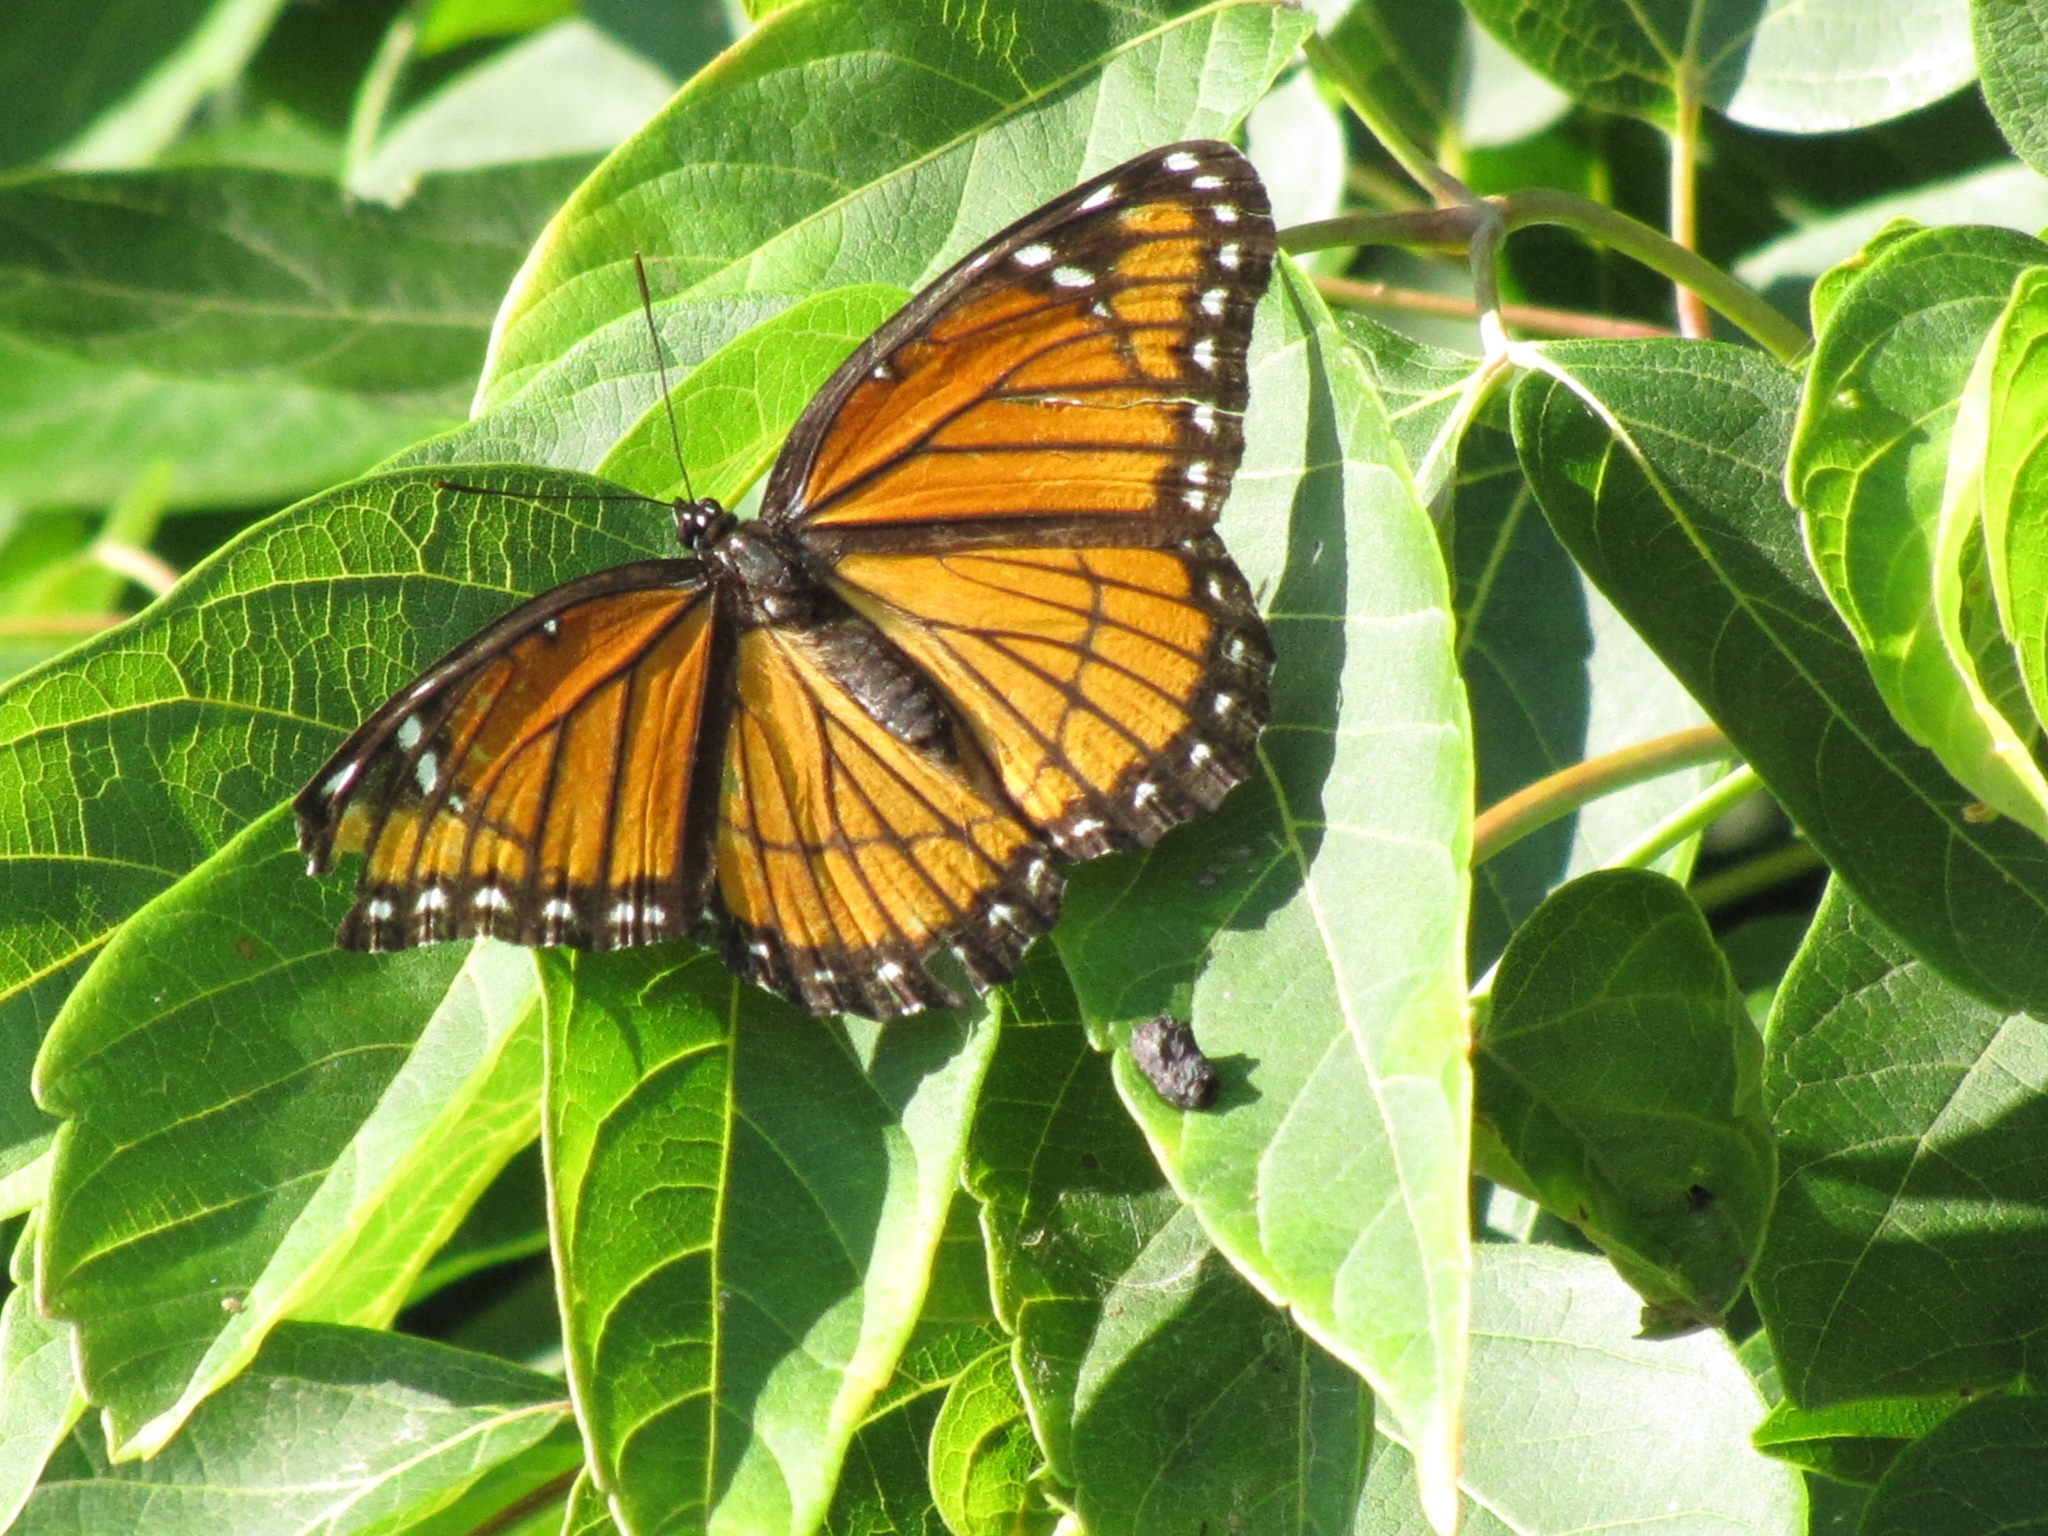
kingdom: Animalia
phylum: Arthropoda
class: Insecta
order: Lepidoptera
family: Nymphalidae
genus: Limenitis
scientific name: Limenitis archippus
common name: Viceroy
